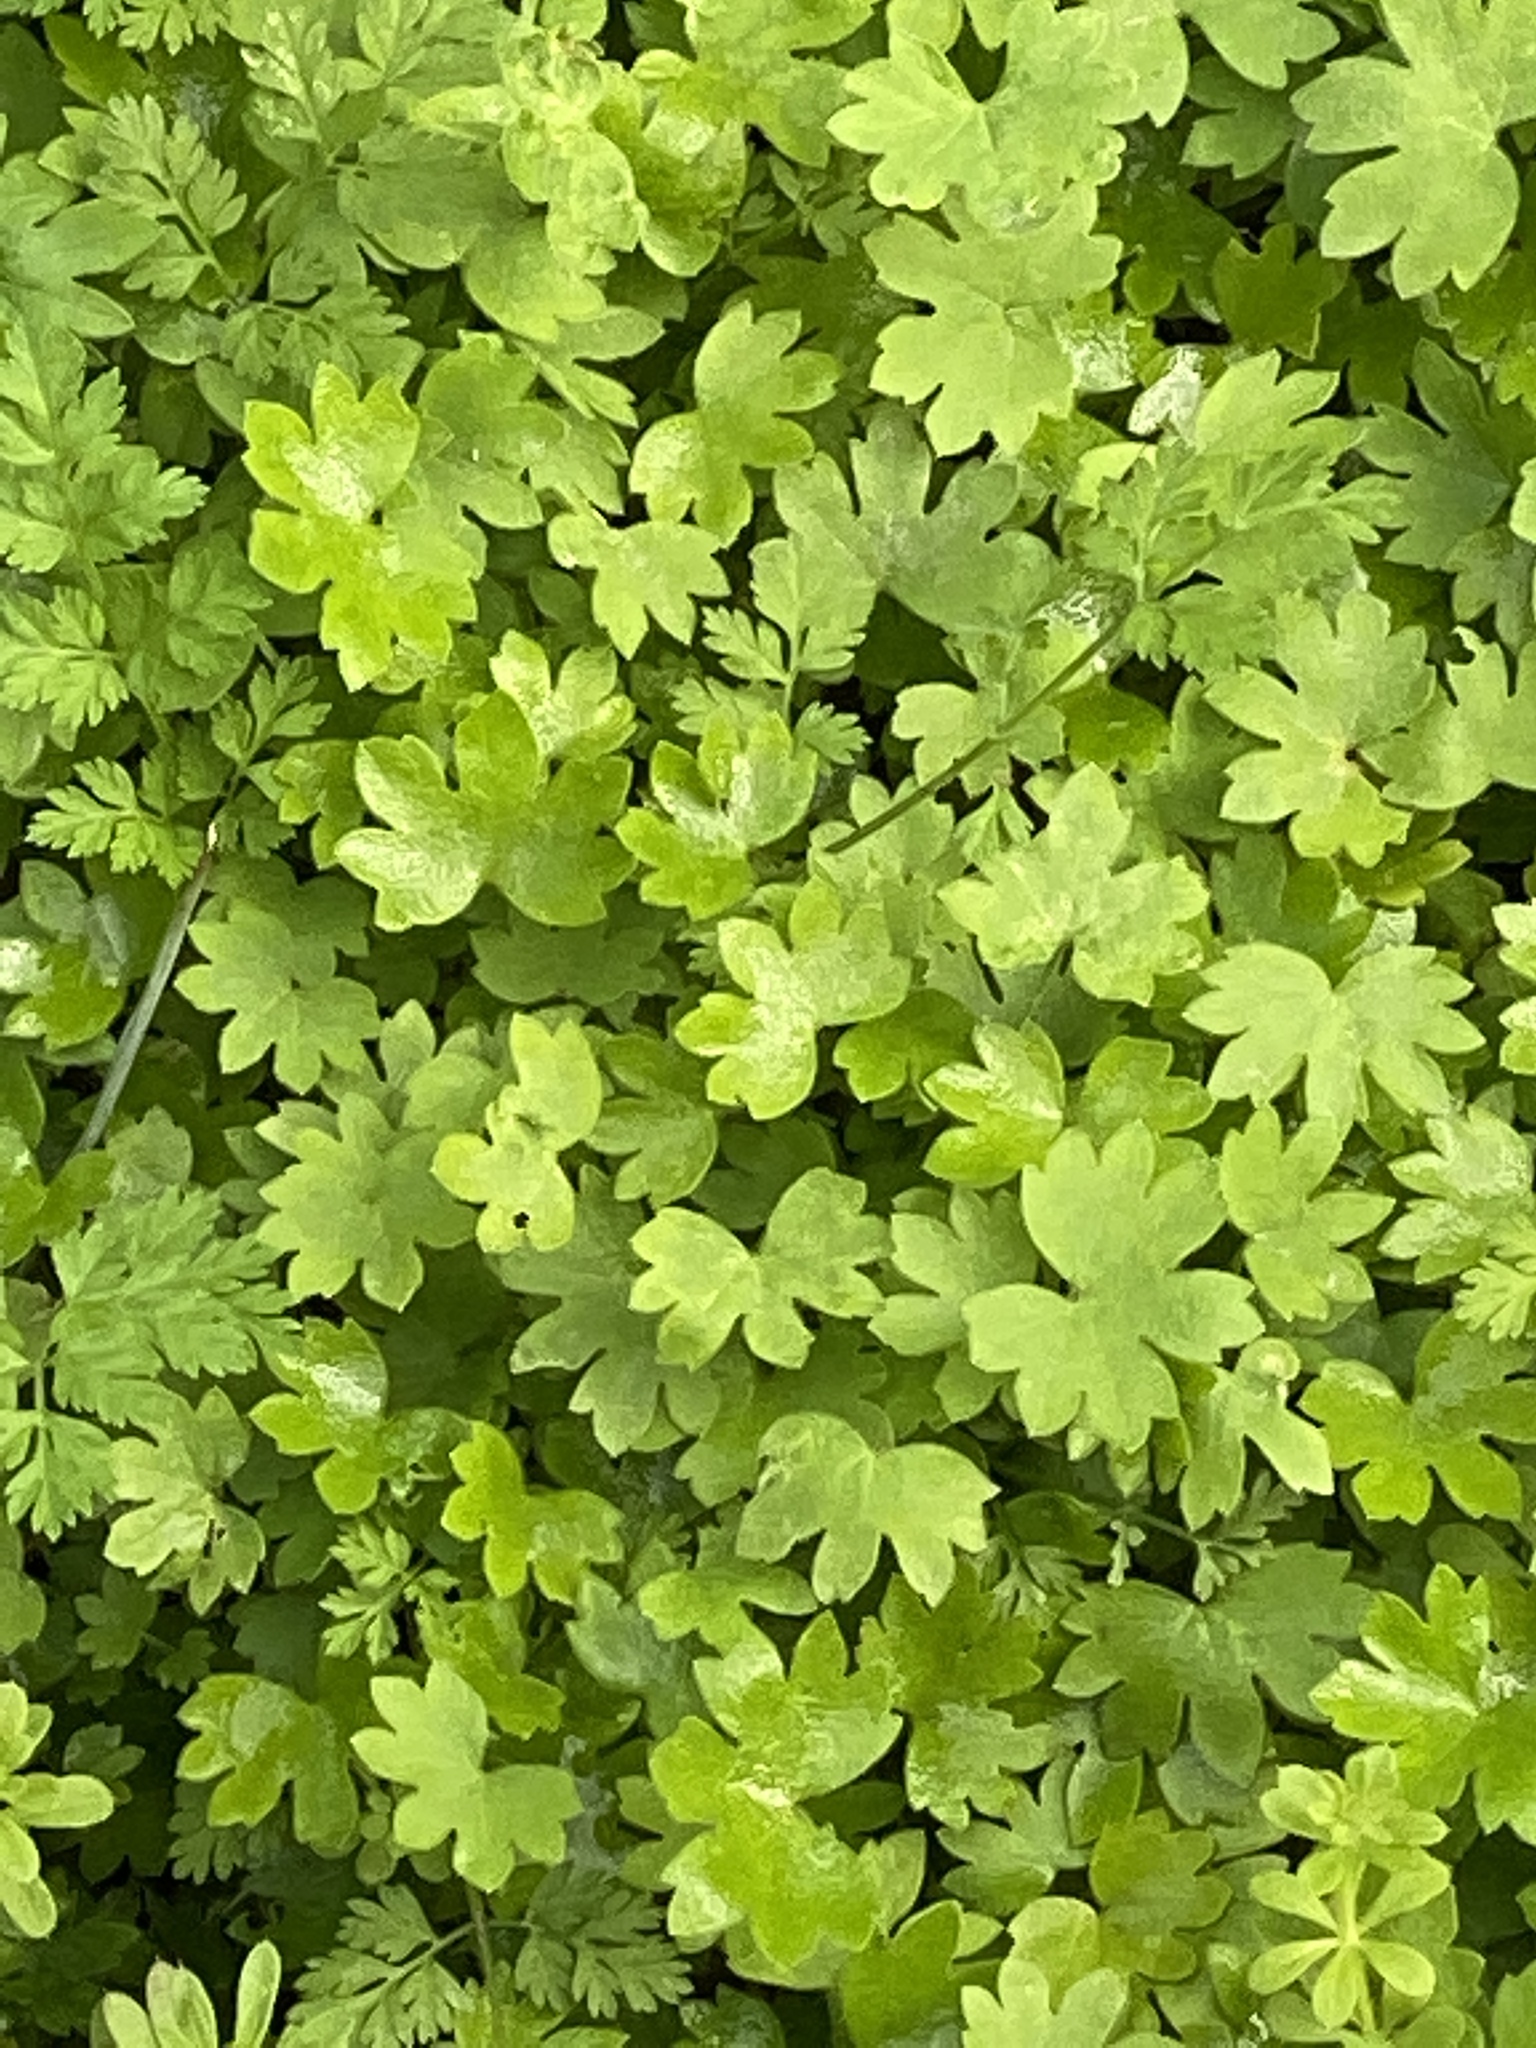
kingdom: Plantae
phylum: Tracheophyta
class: Magnoliopsida
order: Apiales
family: Apiaceae
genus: Bowlesia
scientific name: Bowlesia incana
